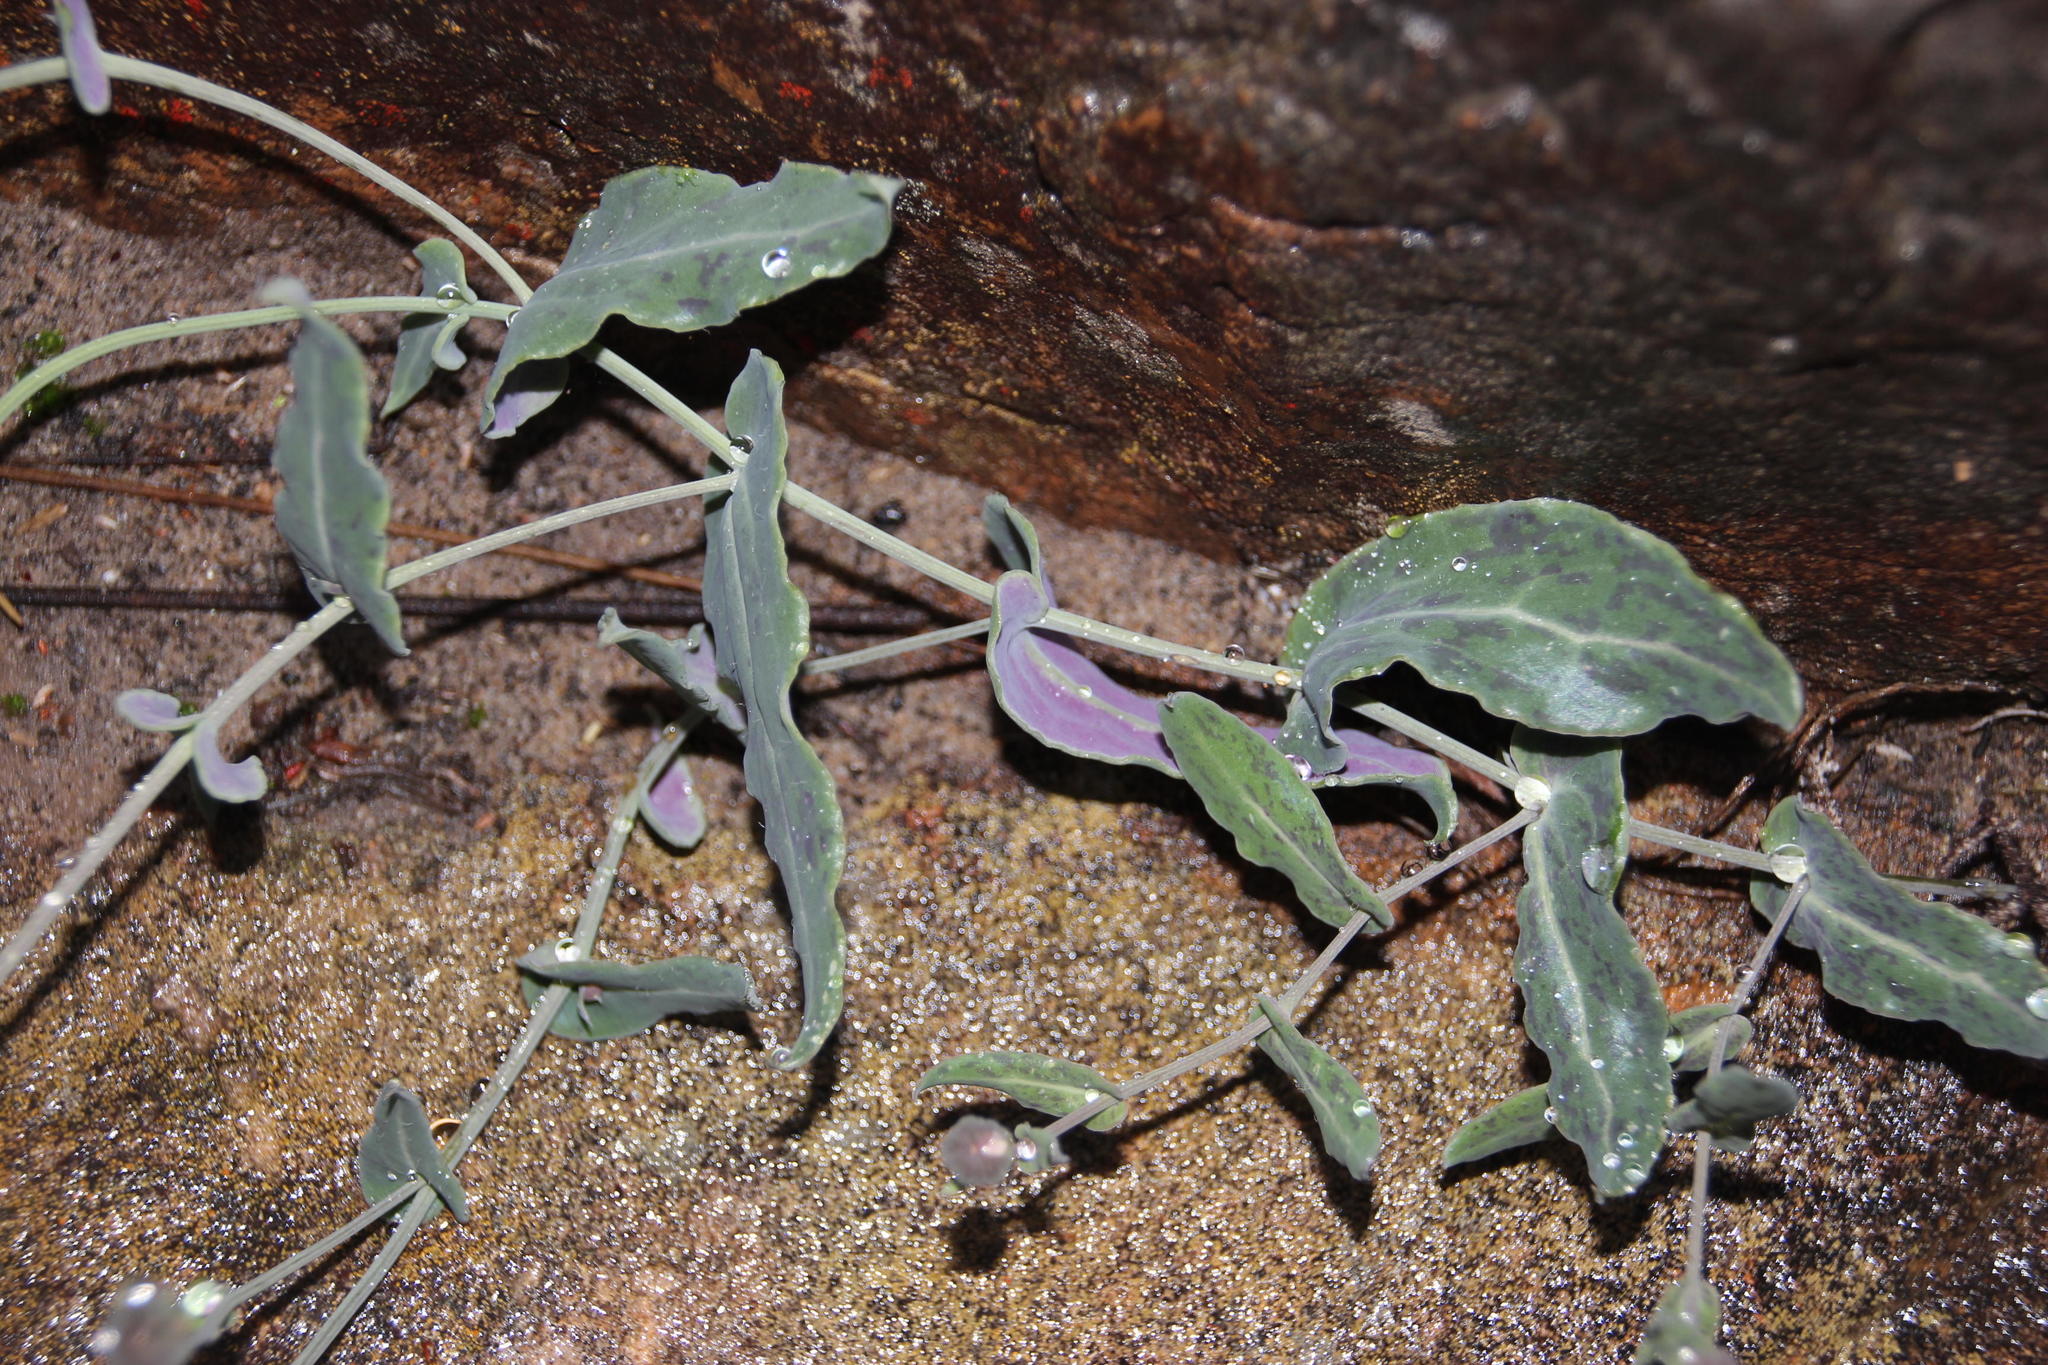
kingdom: Plantae
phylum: Tracheophyta
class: Magnoliopsida
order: Asterales
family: Asteraceae
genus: Othonna
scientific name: Othonna perfoliata
